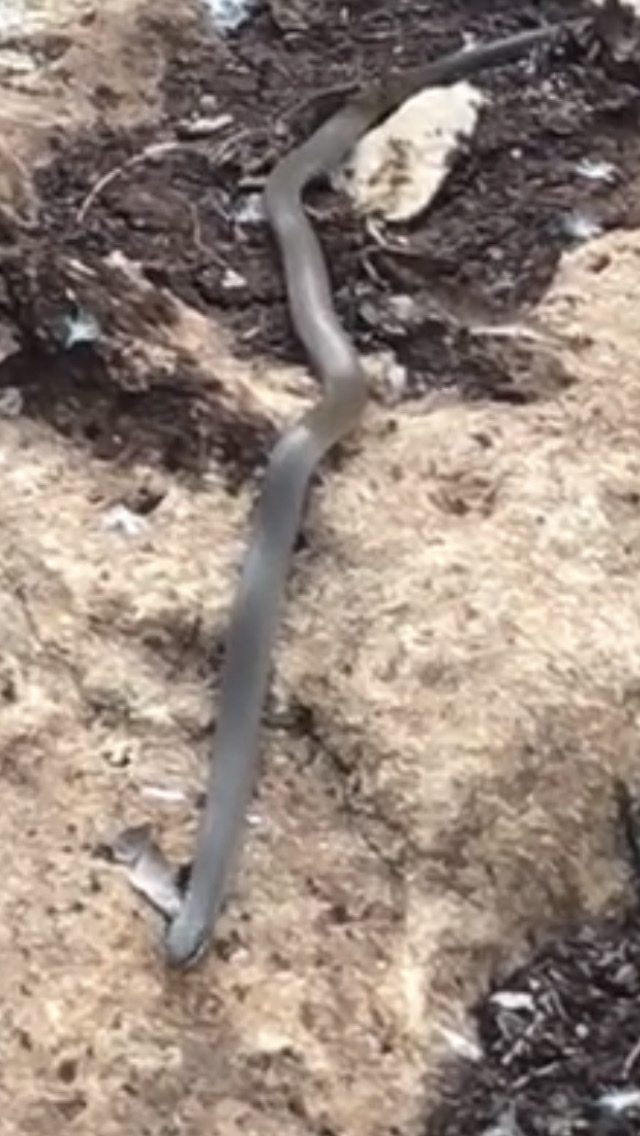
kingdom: Animalia
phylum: Chordata
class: Squamata
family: Colubridae
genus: Masticophis
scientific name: Masticophis mentovarius
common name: Neotropical whip snake
